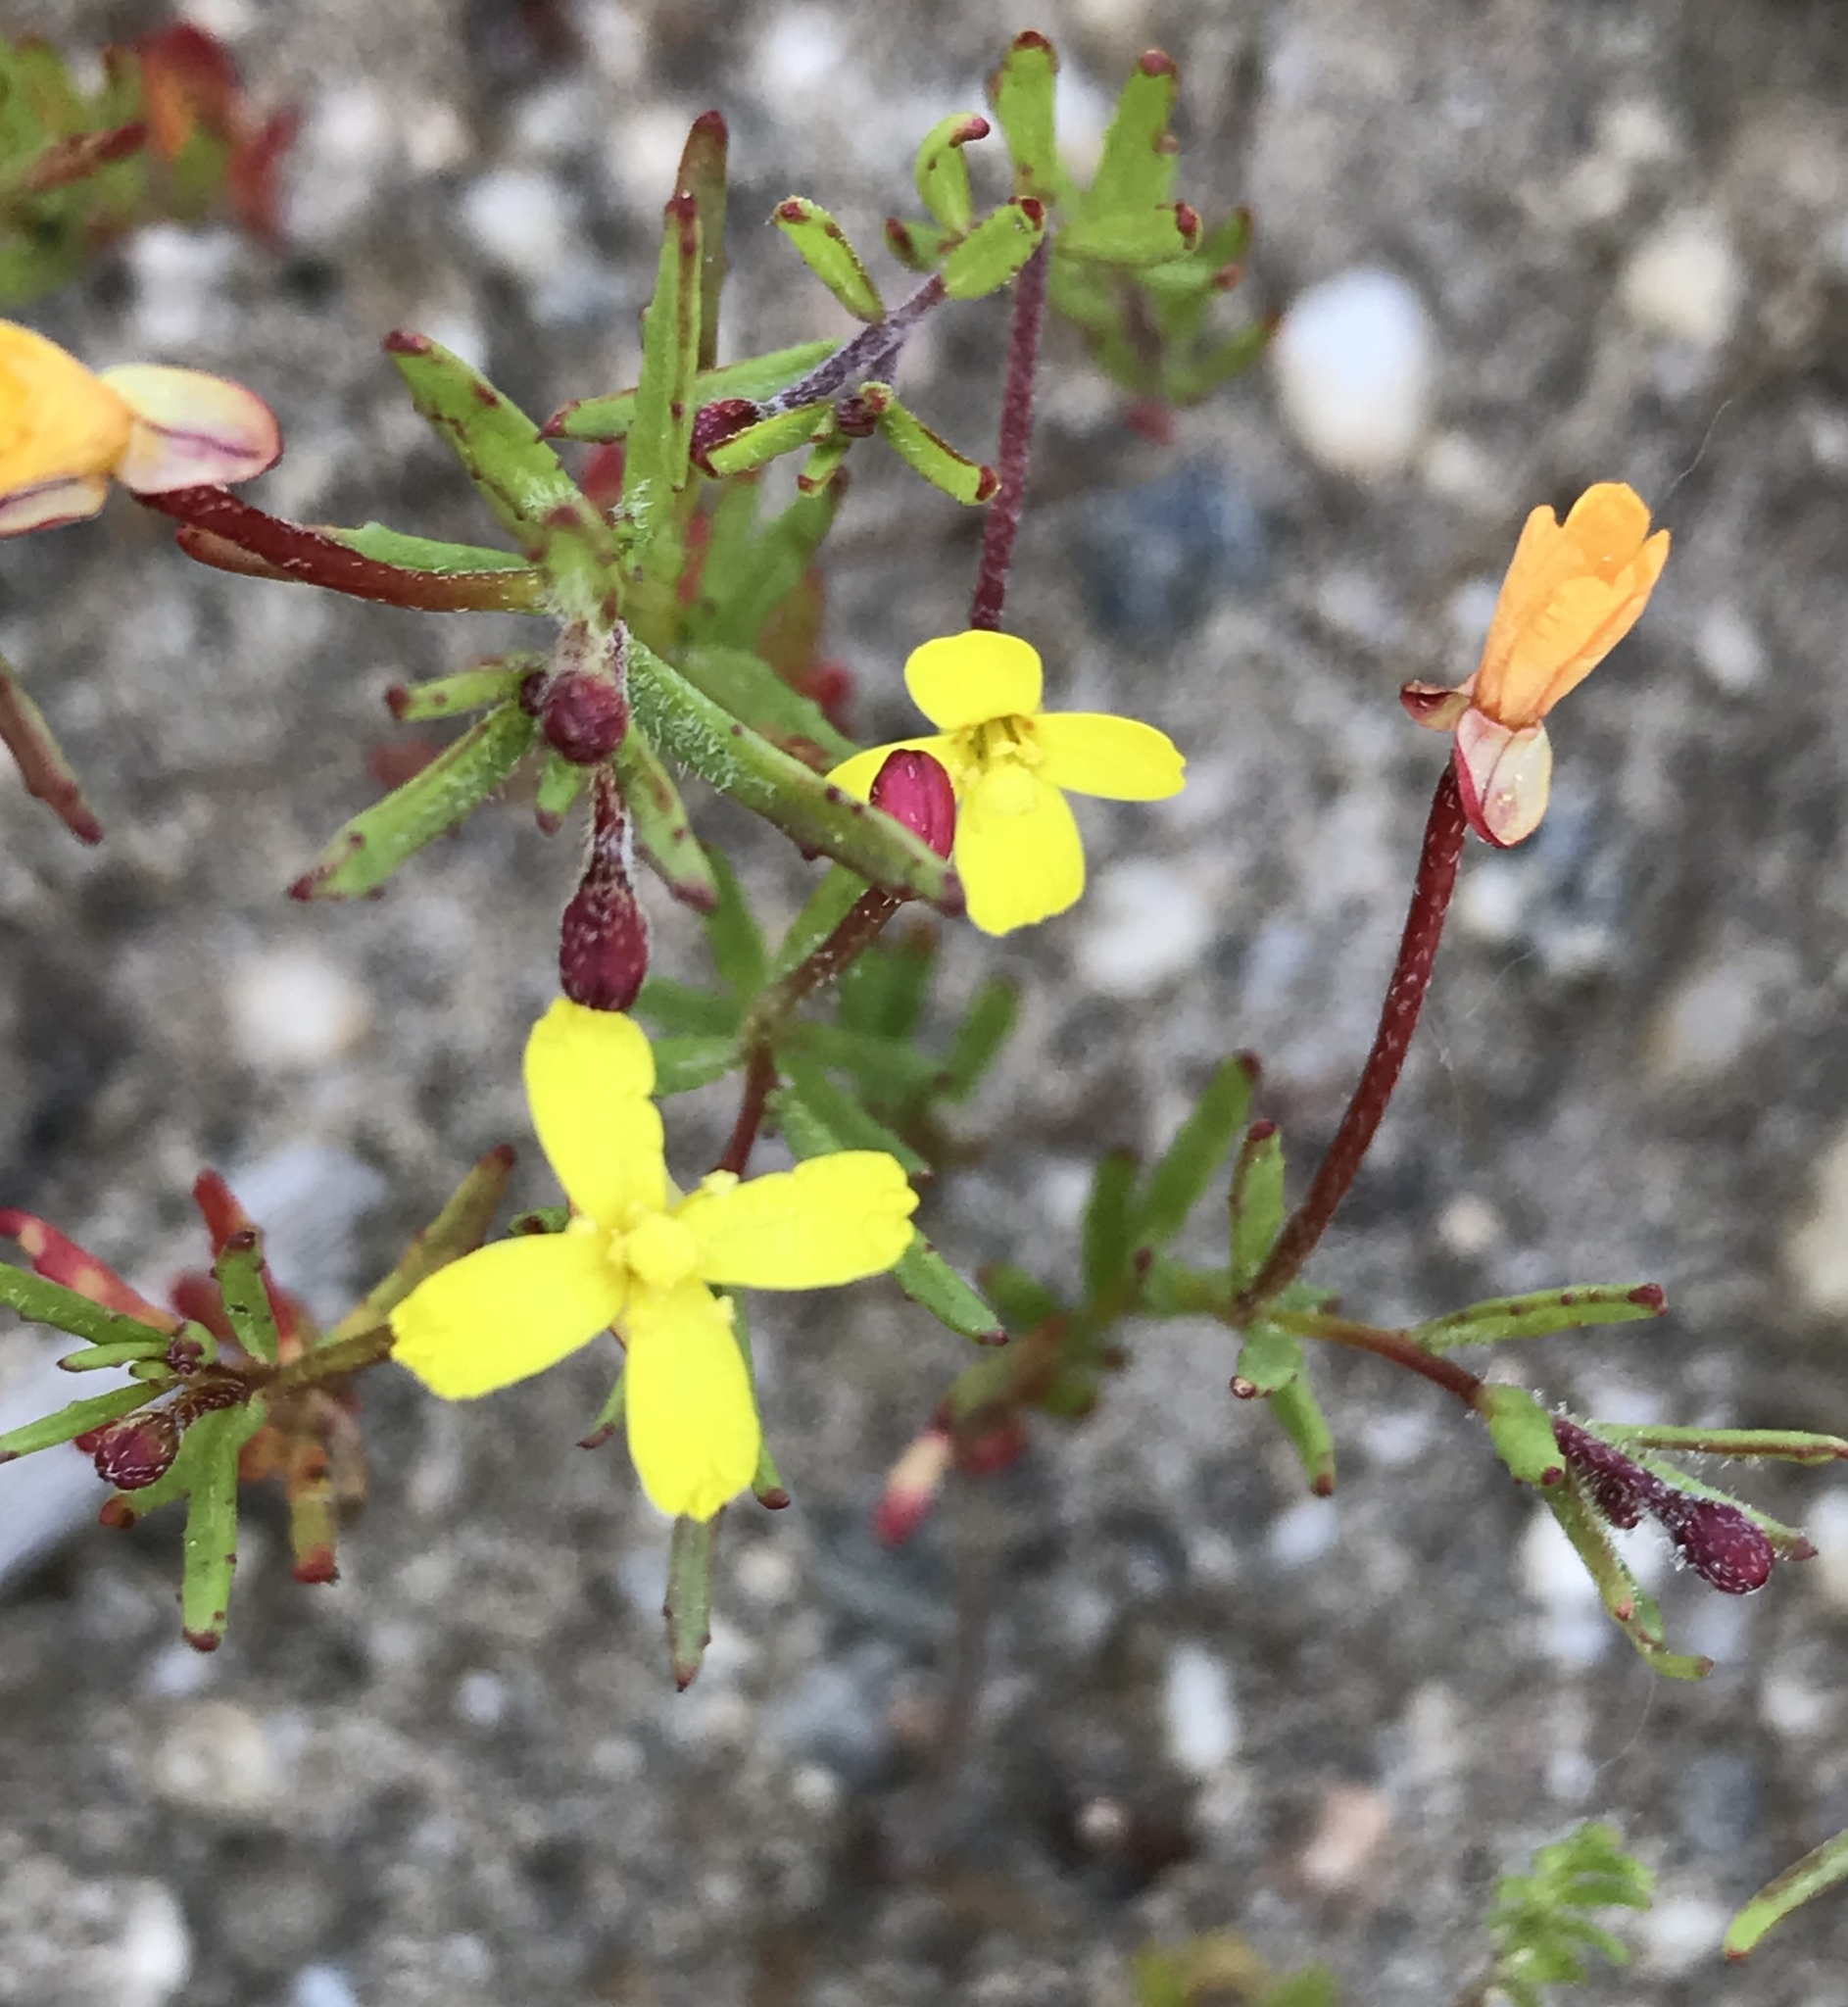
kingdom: Plantae
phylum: Tracheophyta
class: Magnoliopsida
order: Myrtales
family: Onagraceae
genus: Camissonia
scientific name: Camissonia strigulosa
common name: Contorted-primrose
